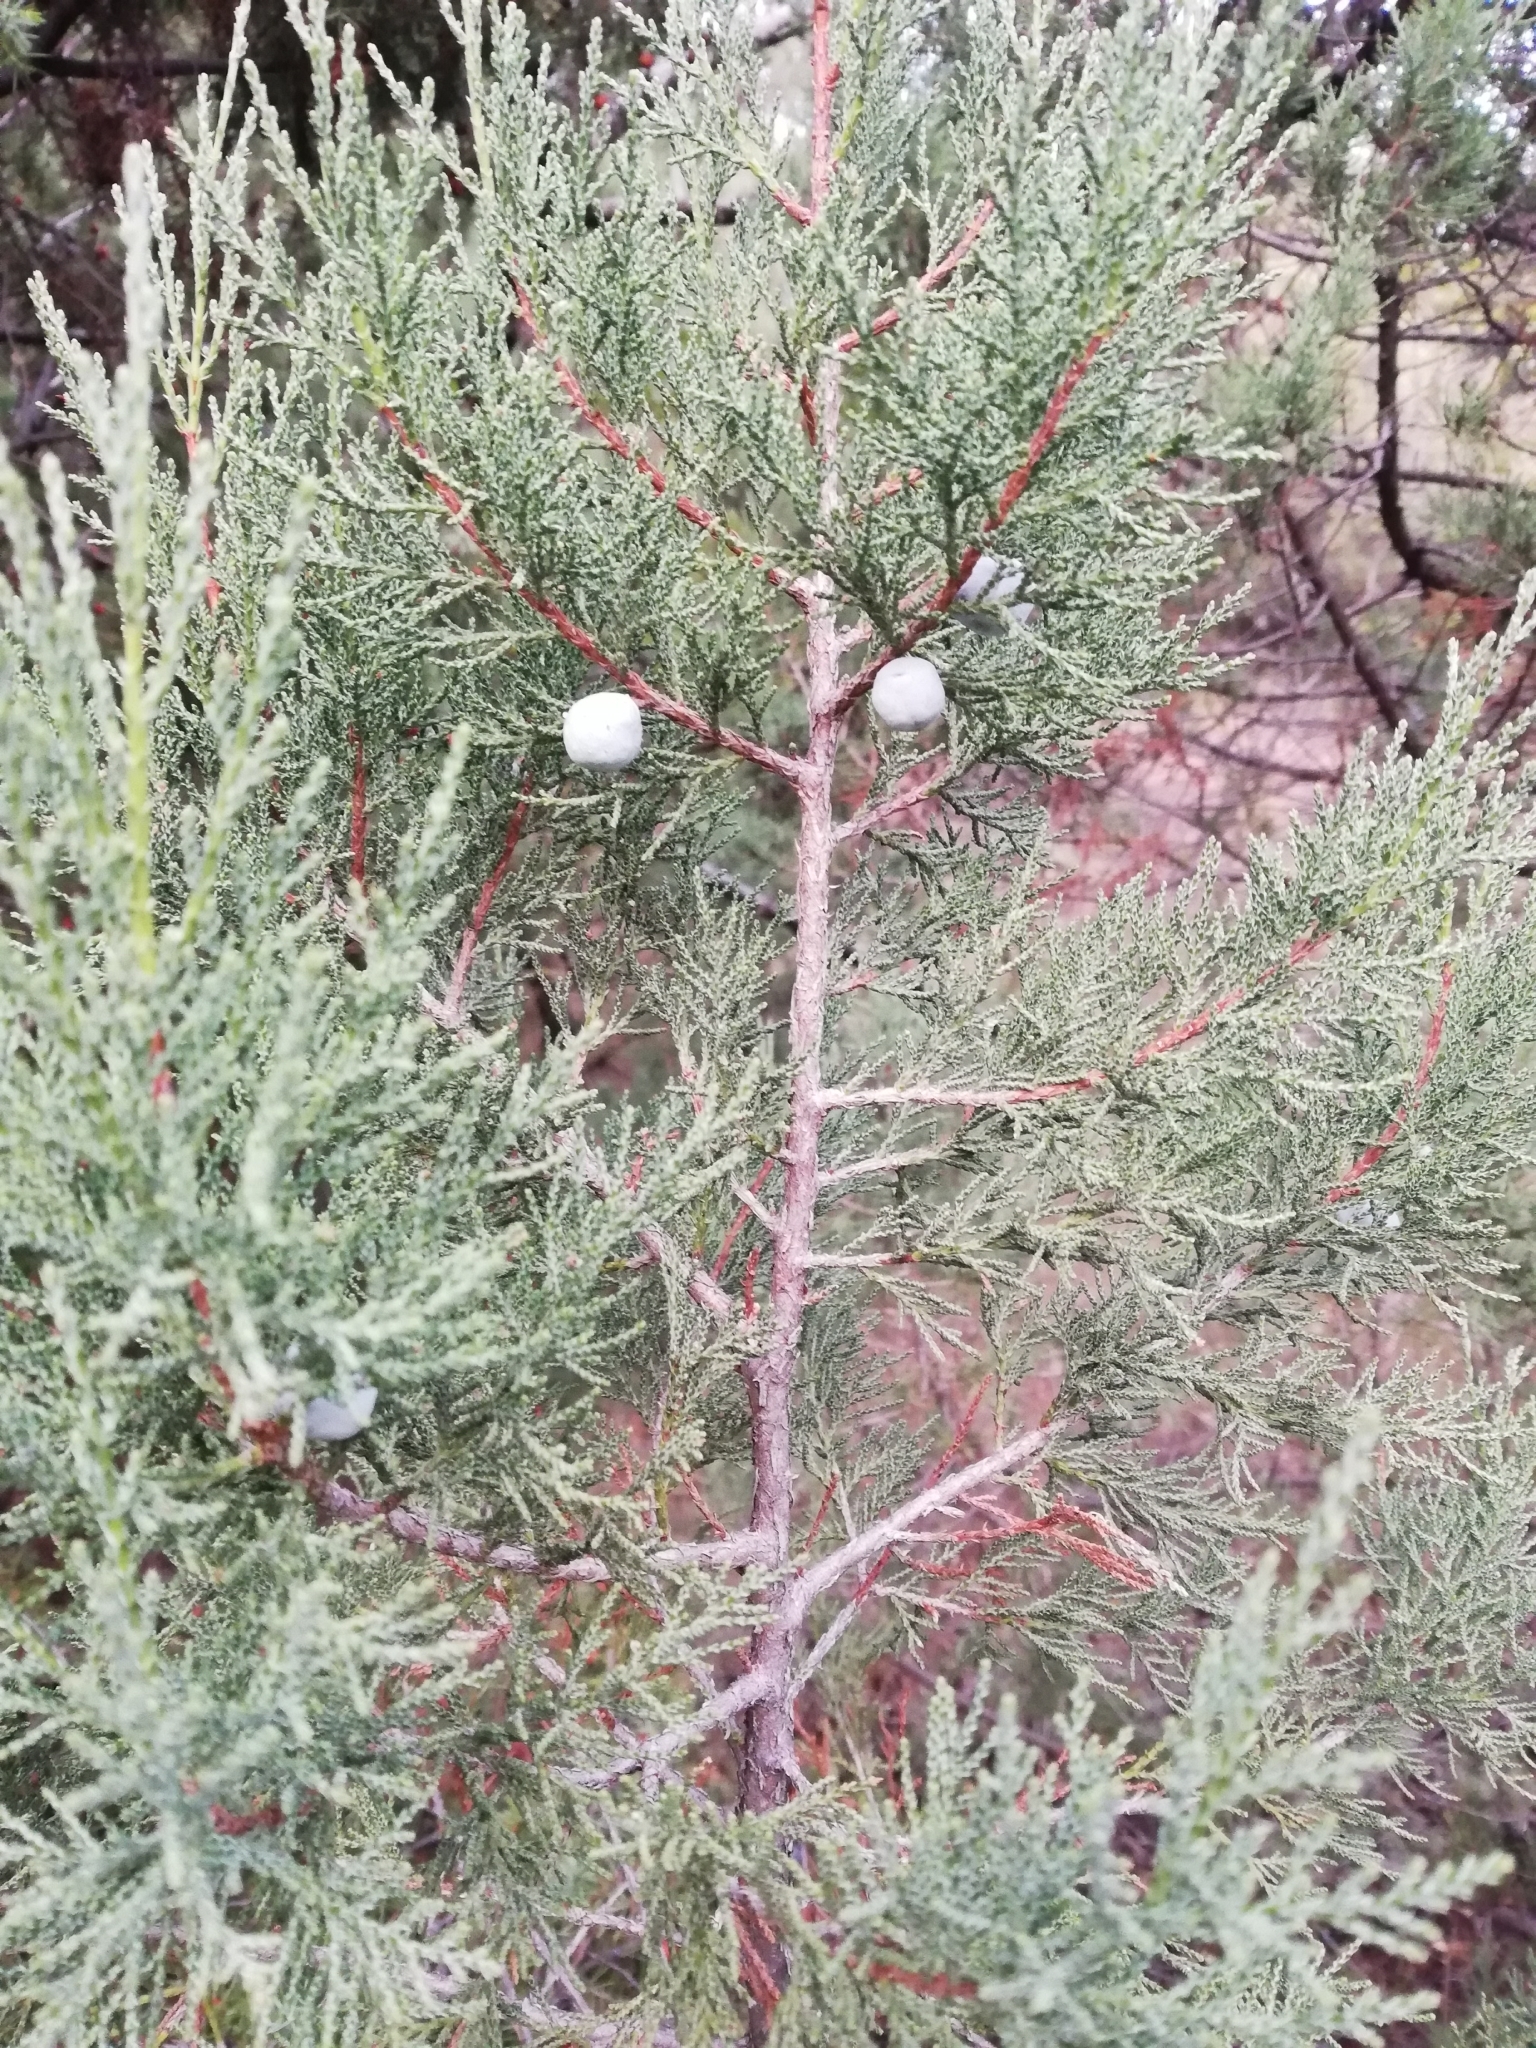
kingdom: Plantae
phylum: Tracheophyta
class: Pinopsida
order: Pinales
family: Cupressaceae
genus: Juniperus
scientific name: Juniperus excelsa
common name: Crimean juniper
